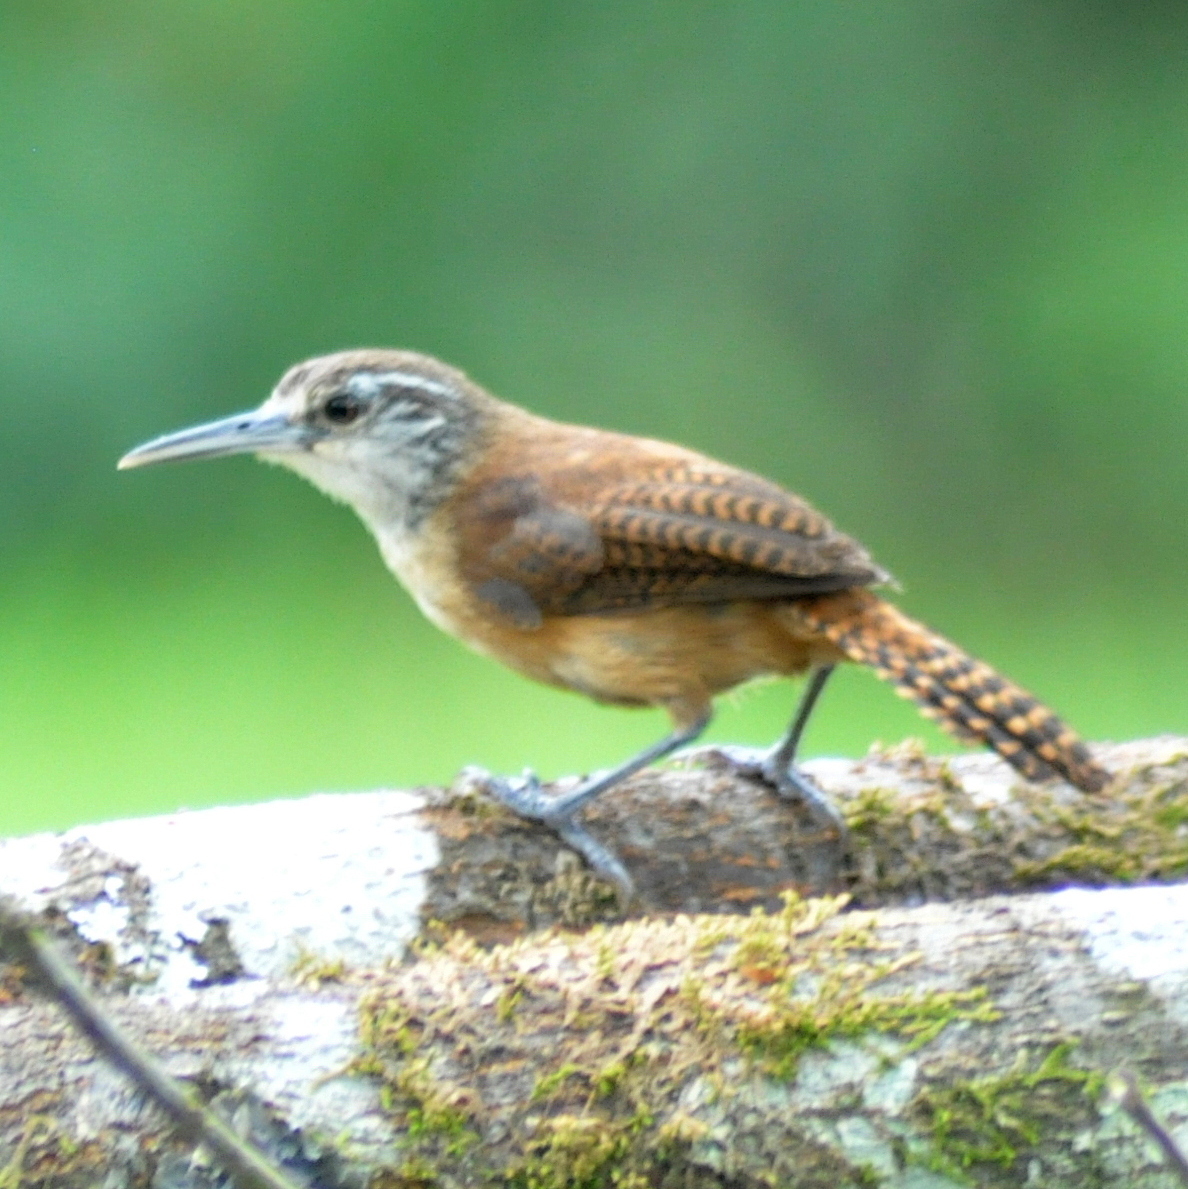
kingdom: Animalia
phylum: Chordata
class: Aves
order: Passeriformes
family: Troglodytidae
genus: Cantorchilus
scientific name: Cantorchilus longirostris
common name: Long-billed wren
